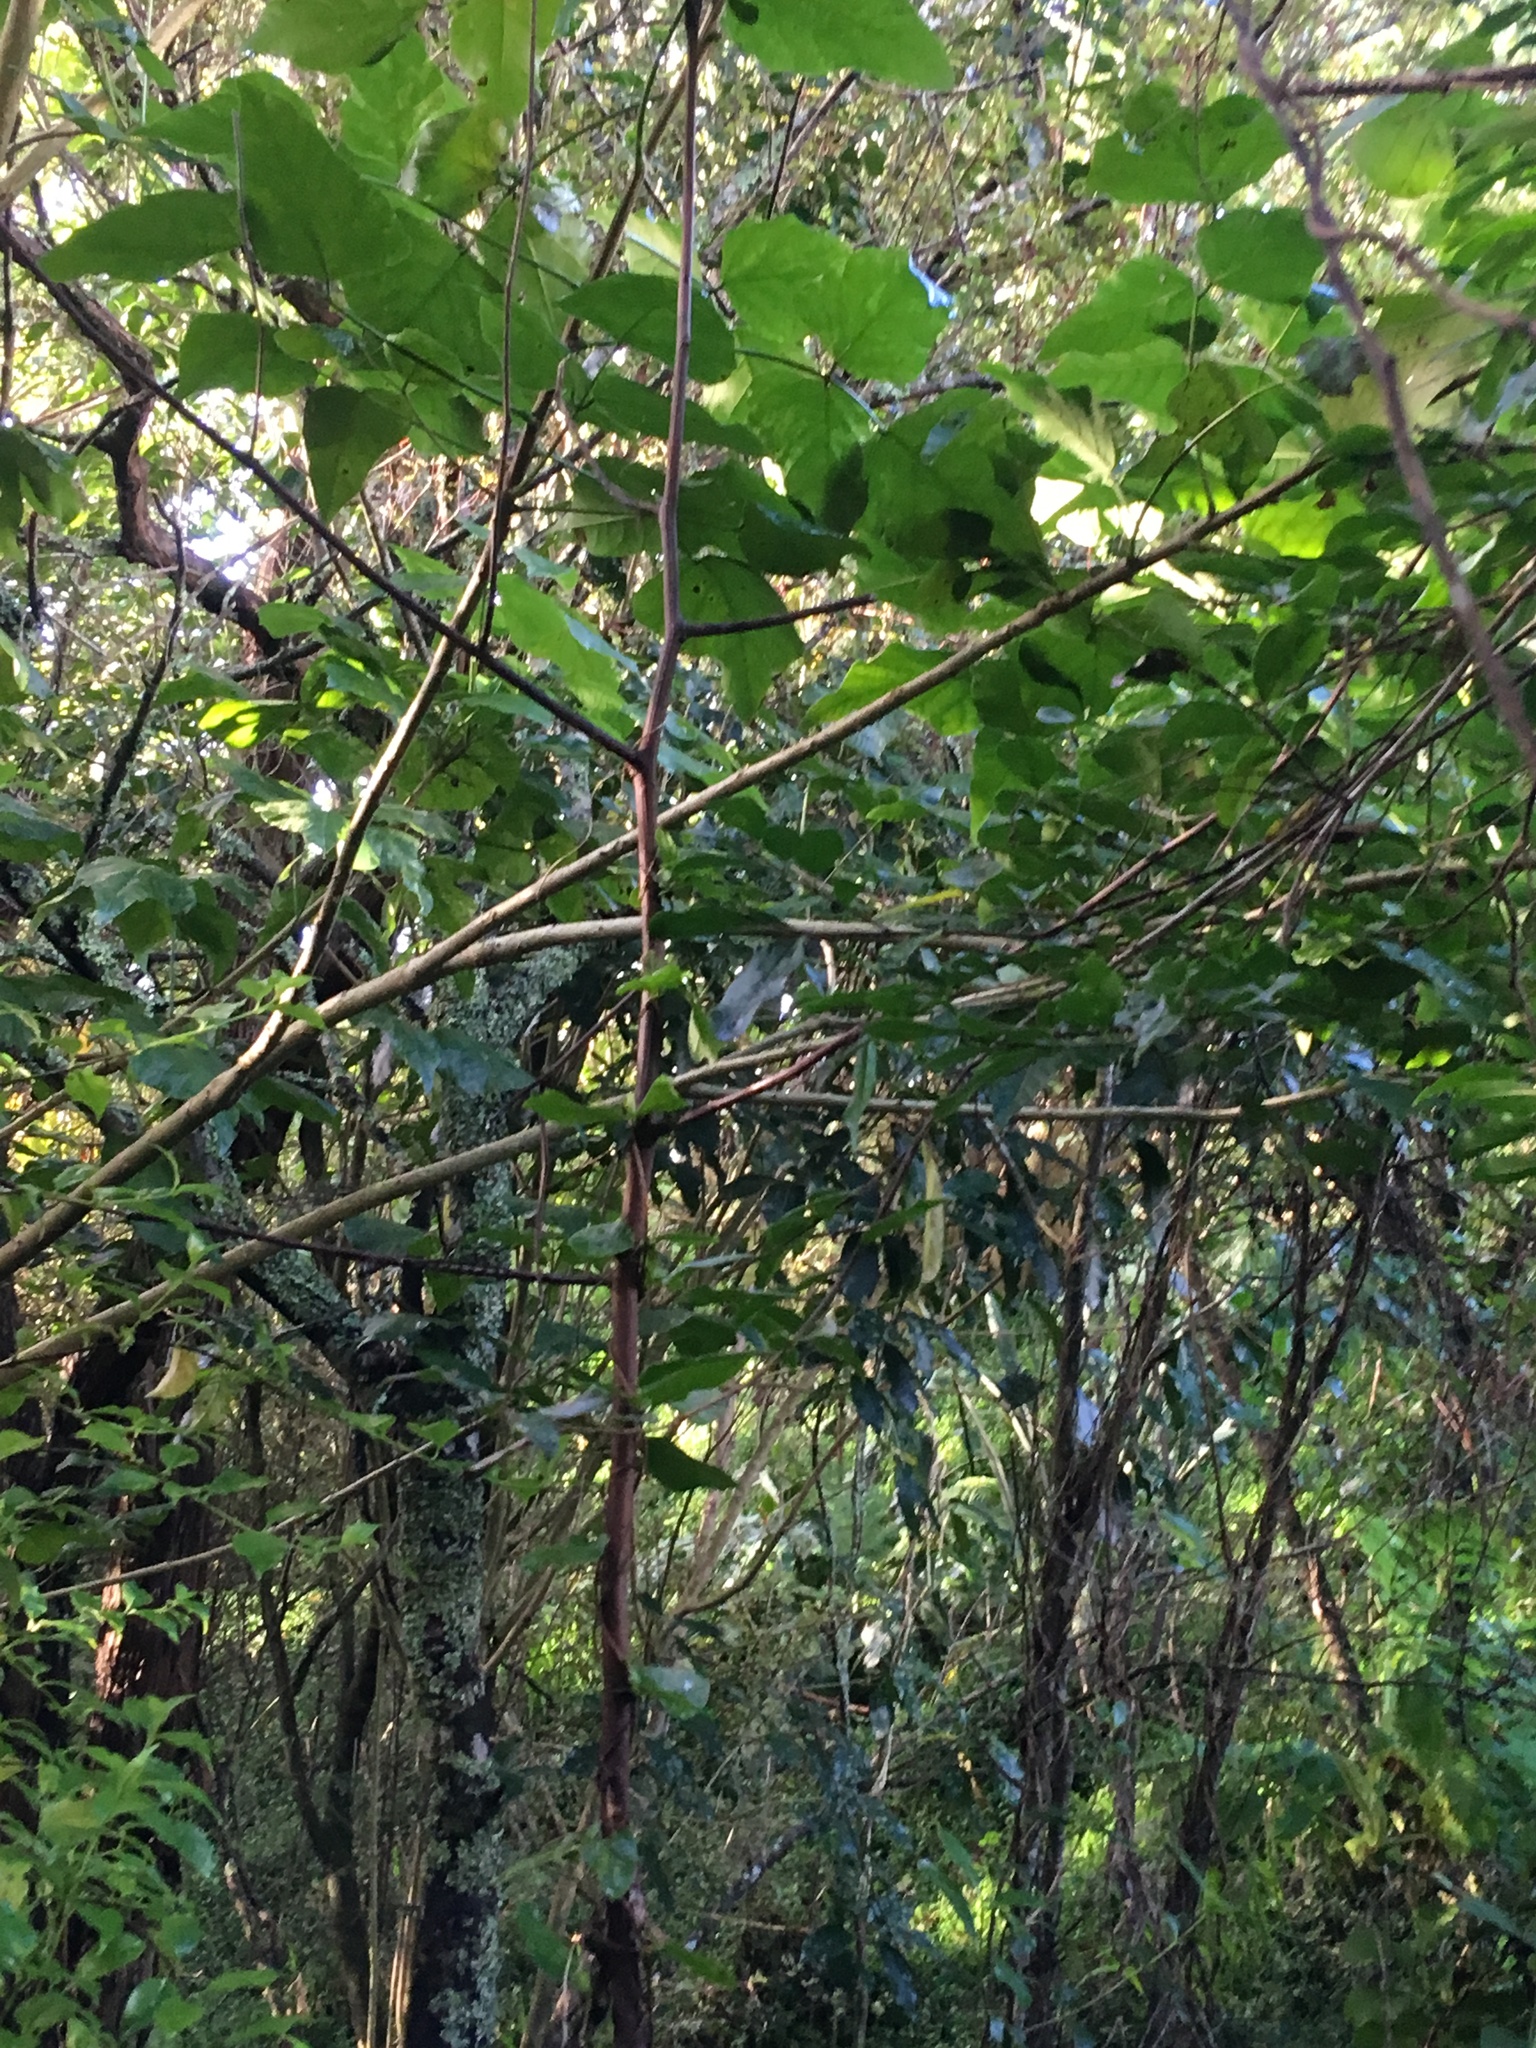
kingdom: Plantae
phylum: Tracheophyta
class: Magnoliopsida
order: Fabales
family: Fabaceae
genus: Erythrina
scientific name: Erythrina sykesii
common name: Coraltree
